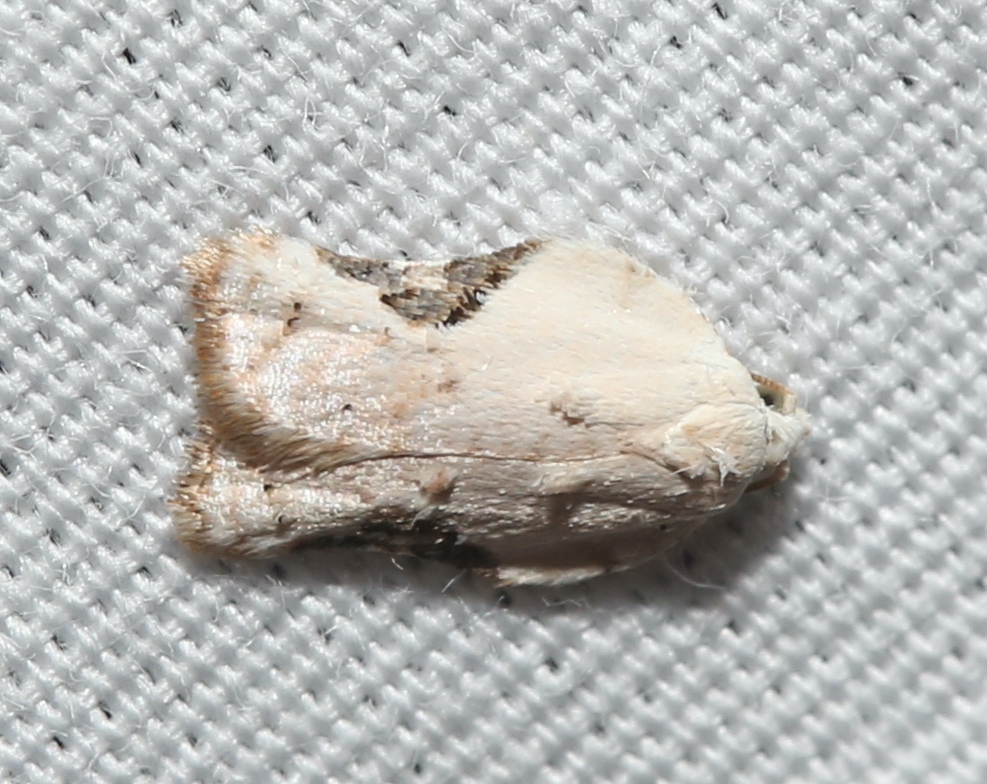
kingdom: Animalia
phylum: Arthropoda
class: Insecta
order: Lepidoptera
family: Tortricidae
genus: Acleris
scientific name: Acleris subnivana
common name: Bent-winged acleris moth
